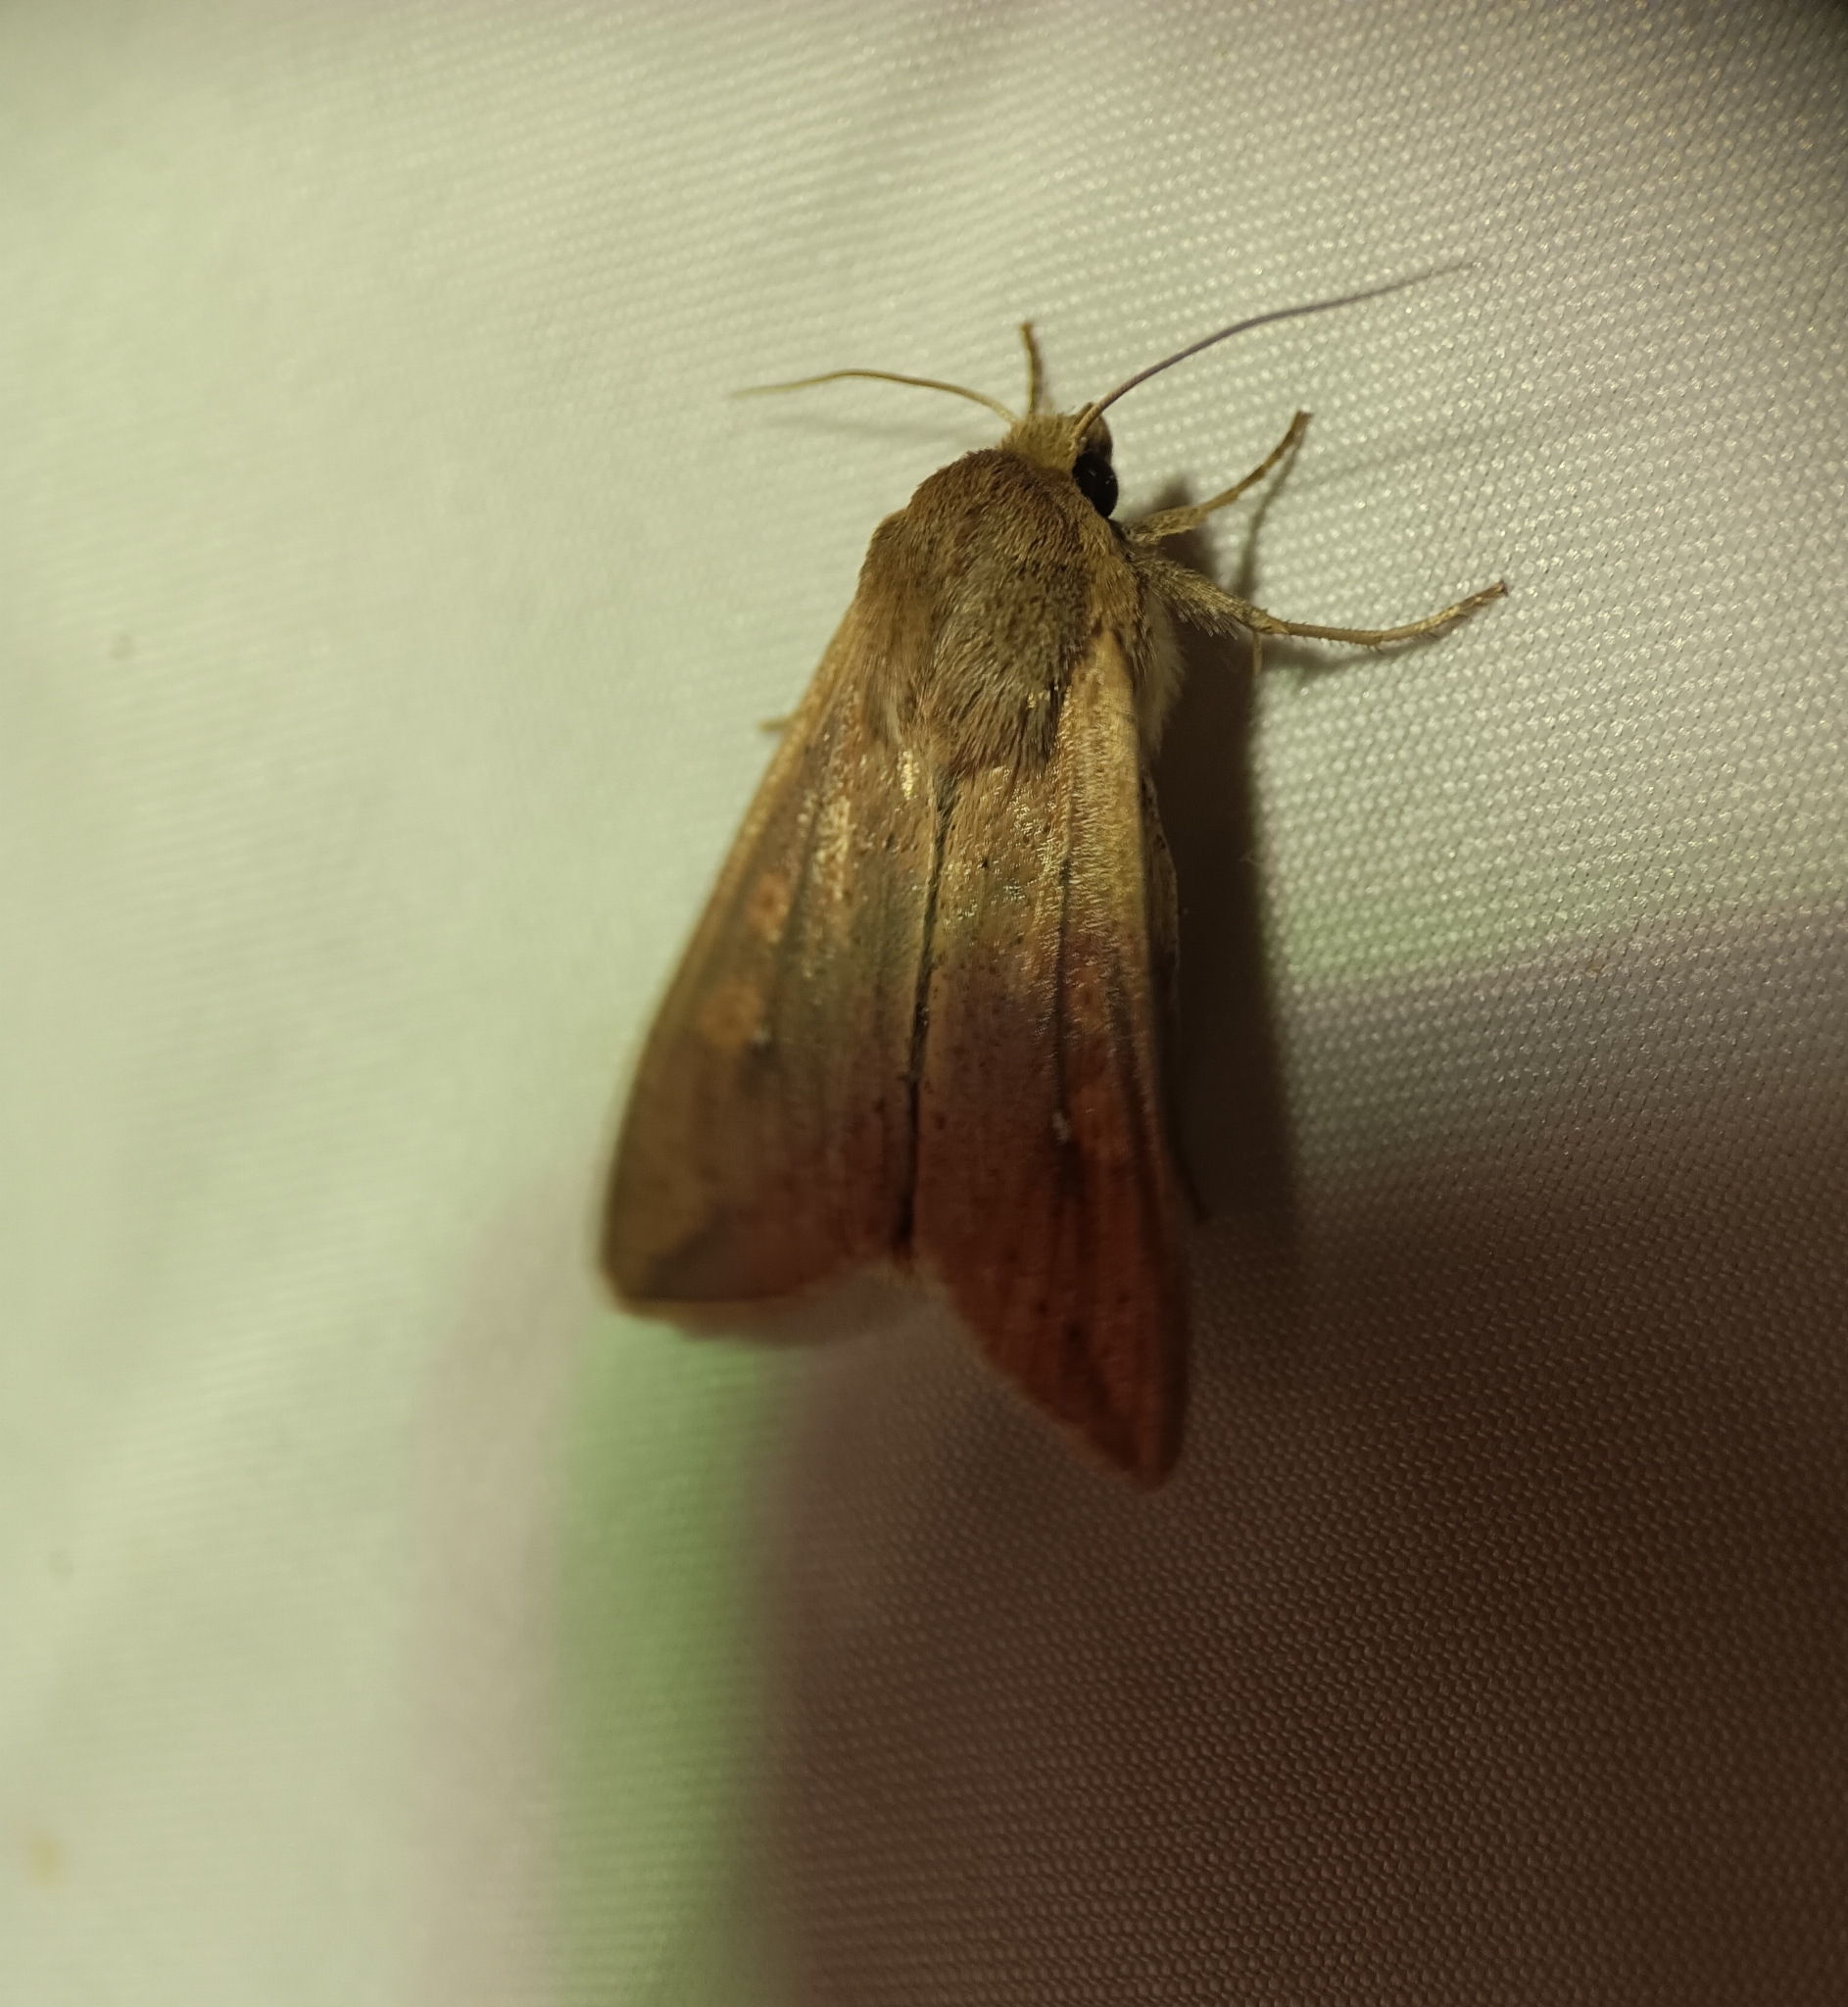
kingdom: Animalia
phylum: Arthropoda
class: Insecta
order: Lepidoptera
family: Noctuidae
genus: Mythimna
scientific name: Mythimna unipuncta
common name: White-speck
